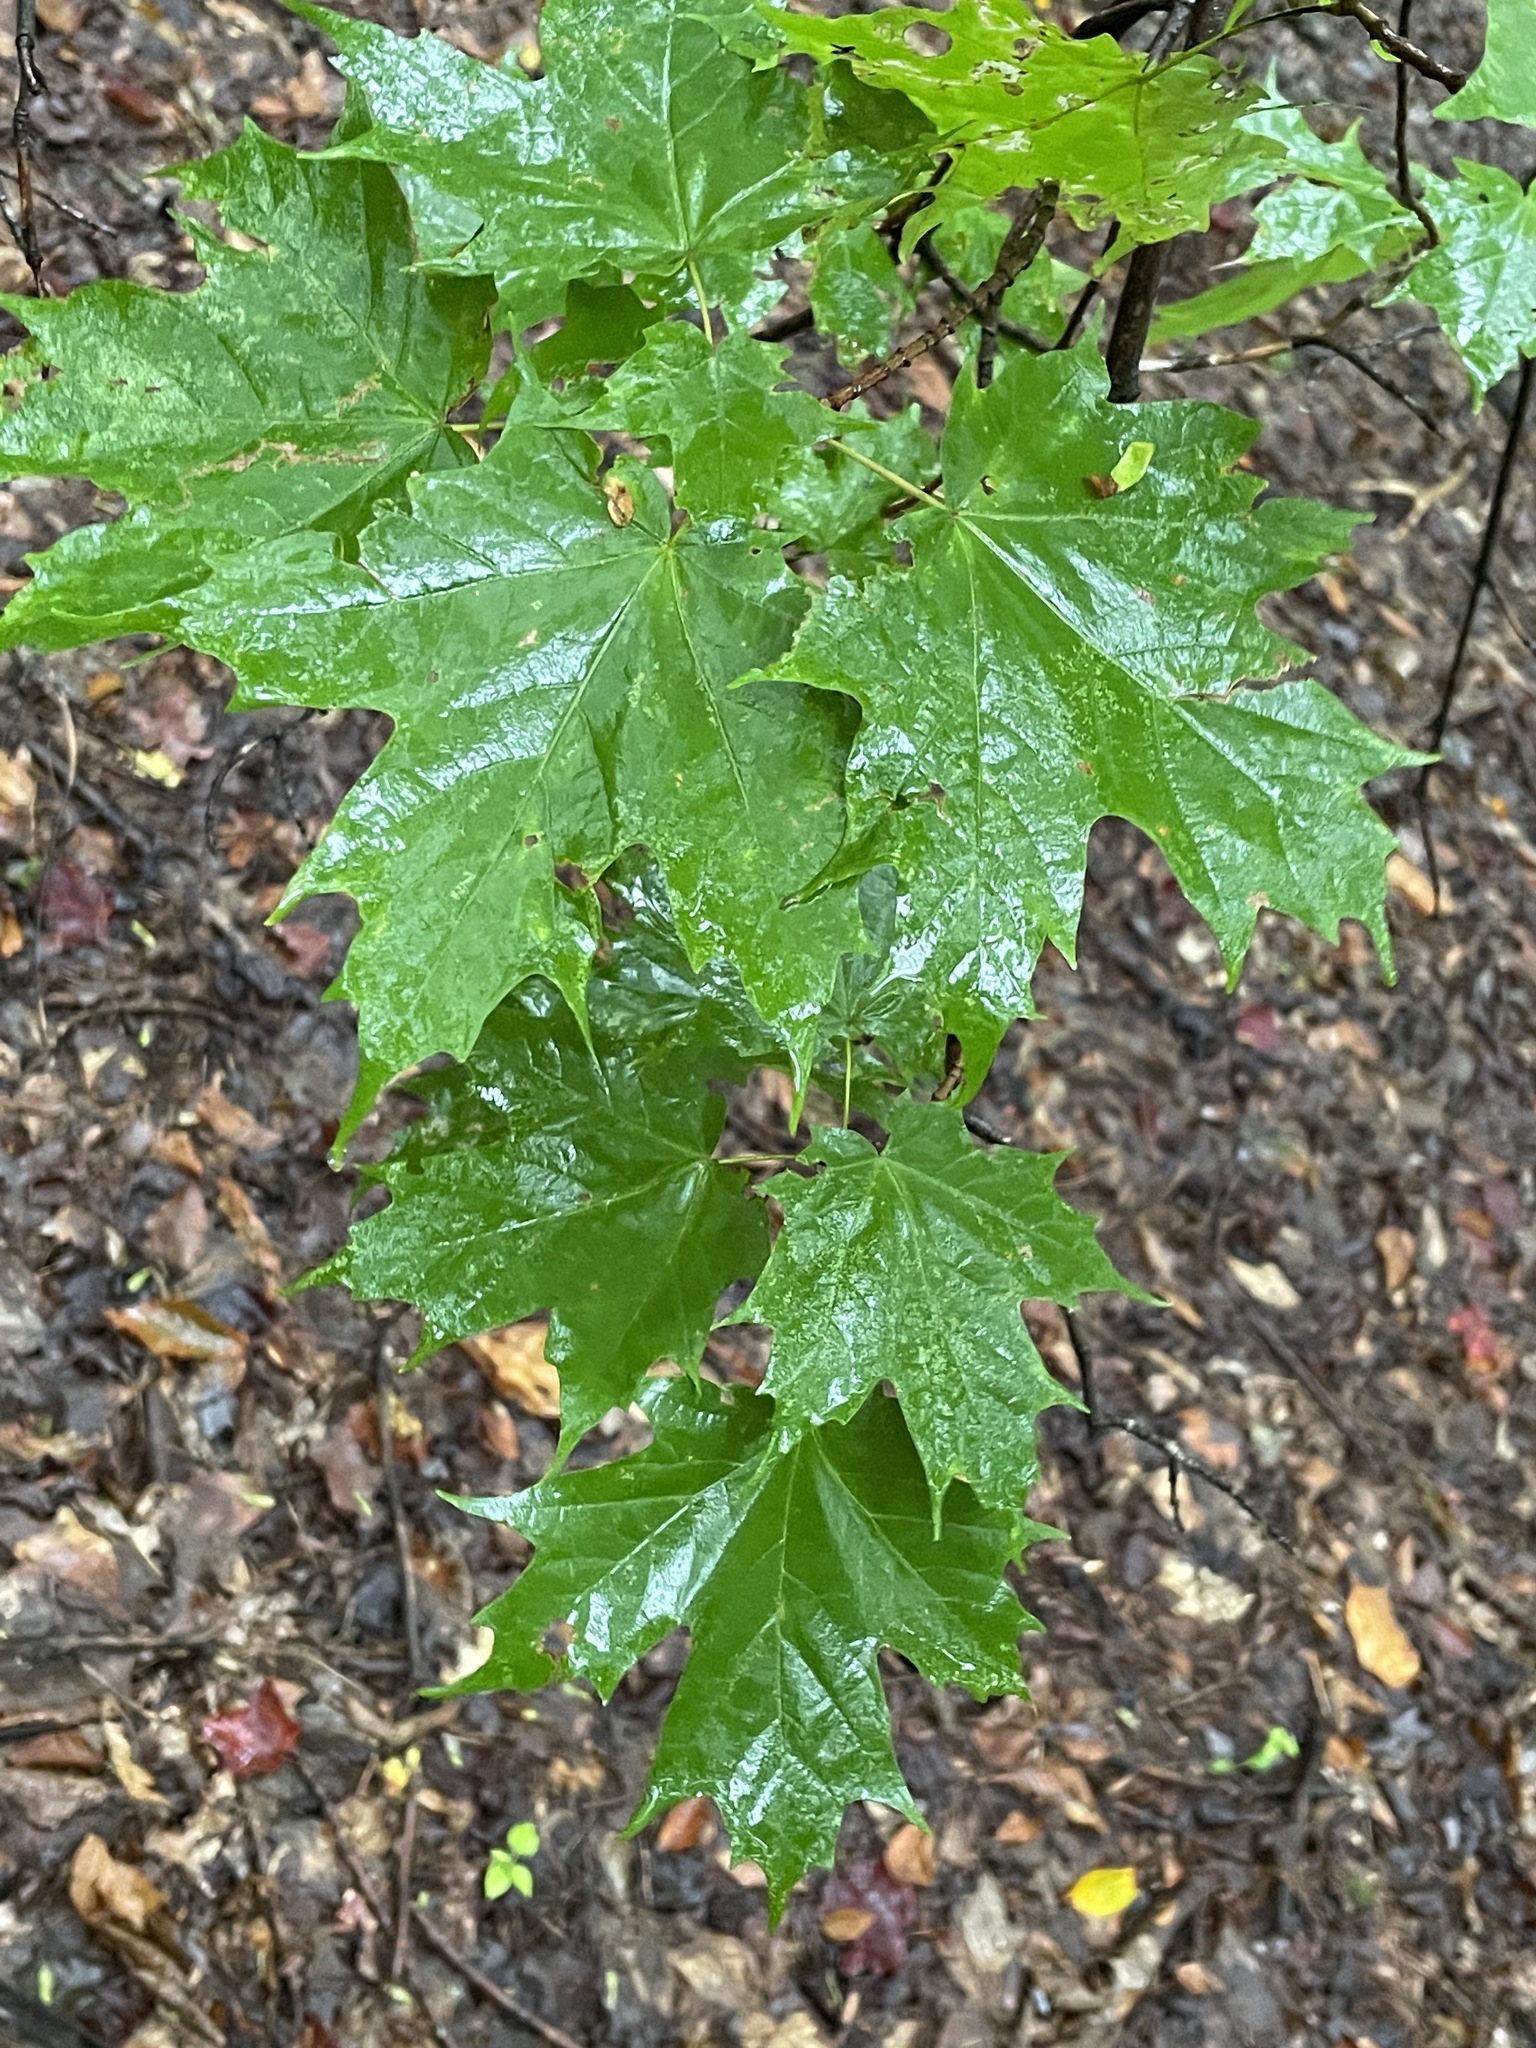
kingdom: Plantae
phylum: Tracheophyta
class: Magnoliopsida
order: Sapindales
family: Sapindaceae
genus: Acer
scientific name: Acer saccharum
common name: Sugar maple
